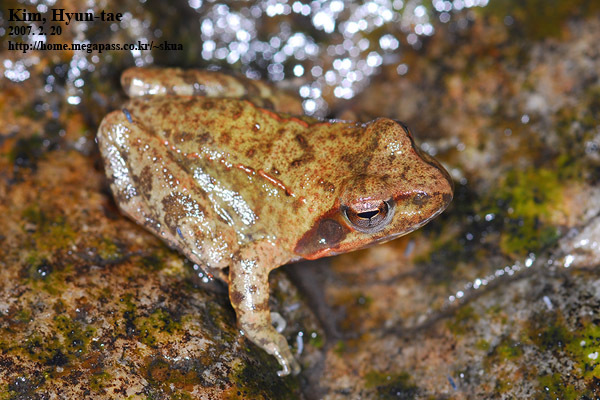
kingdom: Animalia
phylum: Chordata
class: Amphibia
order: Anura
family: Ranidae
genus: Rana
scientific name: Rana uenoi
